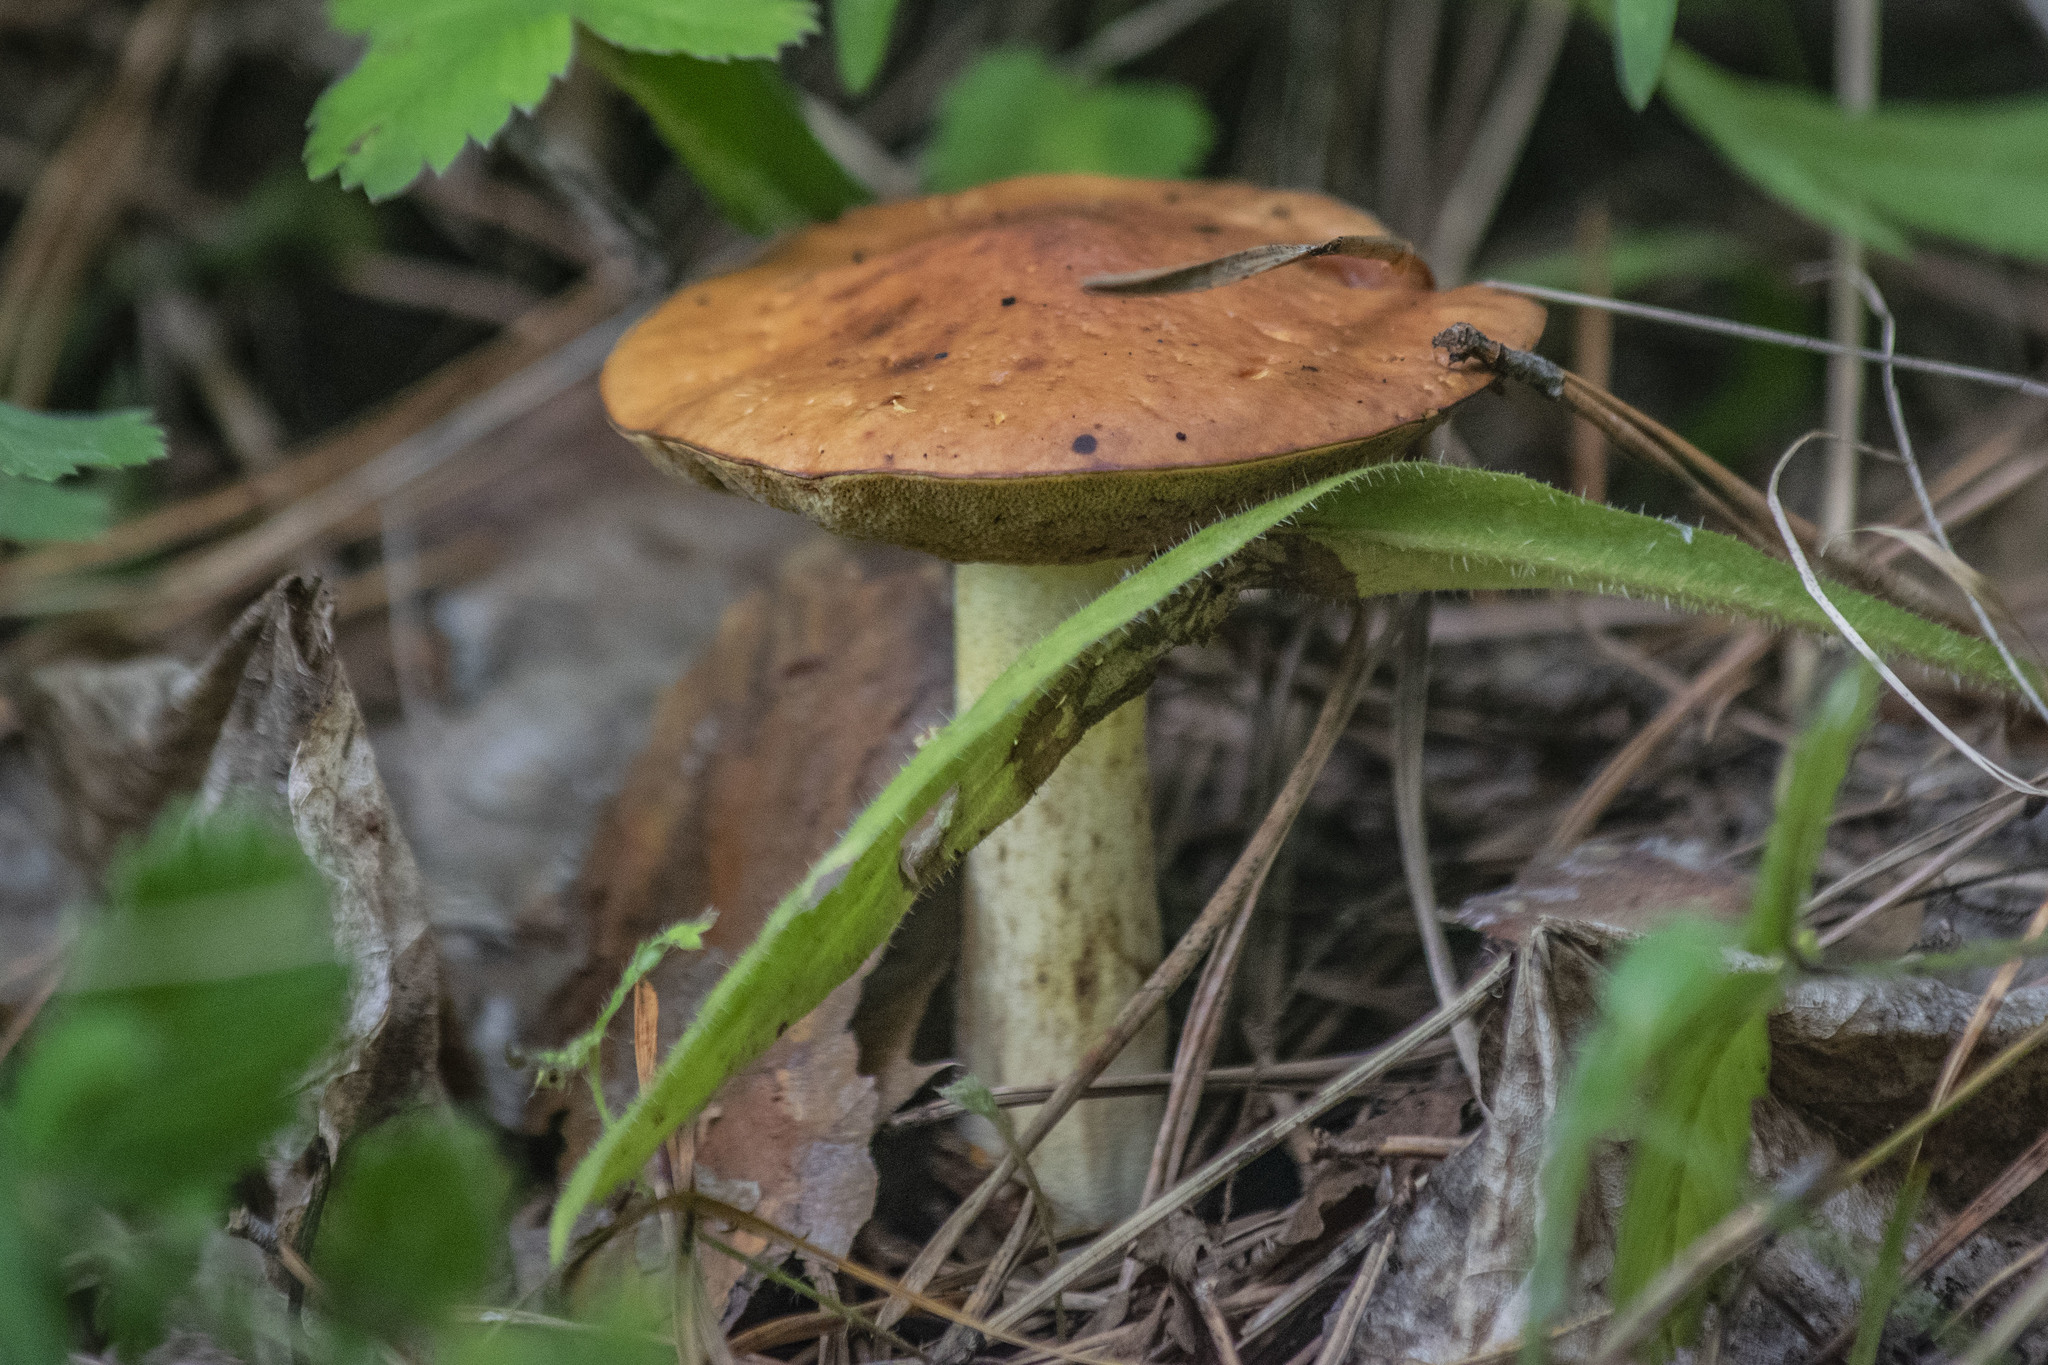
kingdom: Fungi
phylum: Basidiomycota
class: Agaricomycetes
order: Boletales
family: Suillaceae
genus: Suillus
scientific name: Suillus granulatus
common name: Weeping bolete
